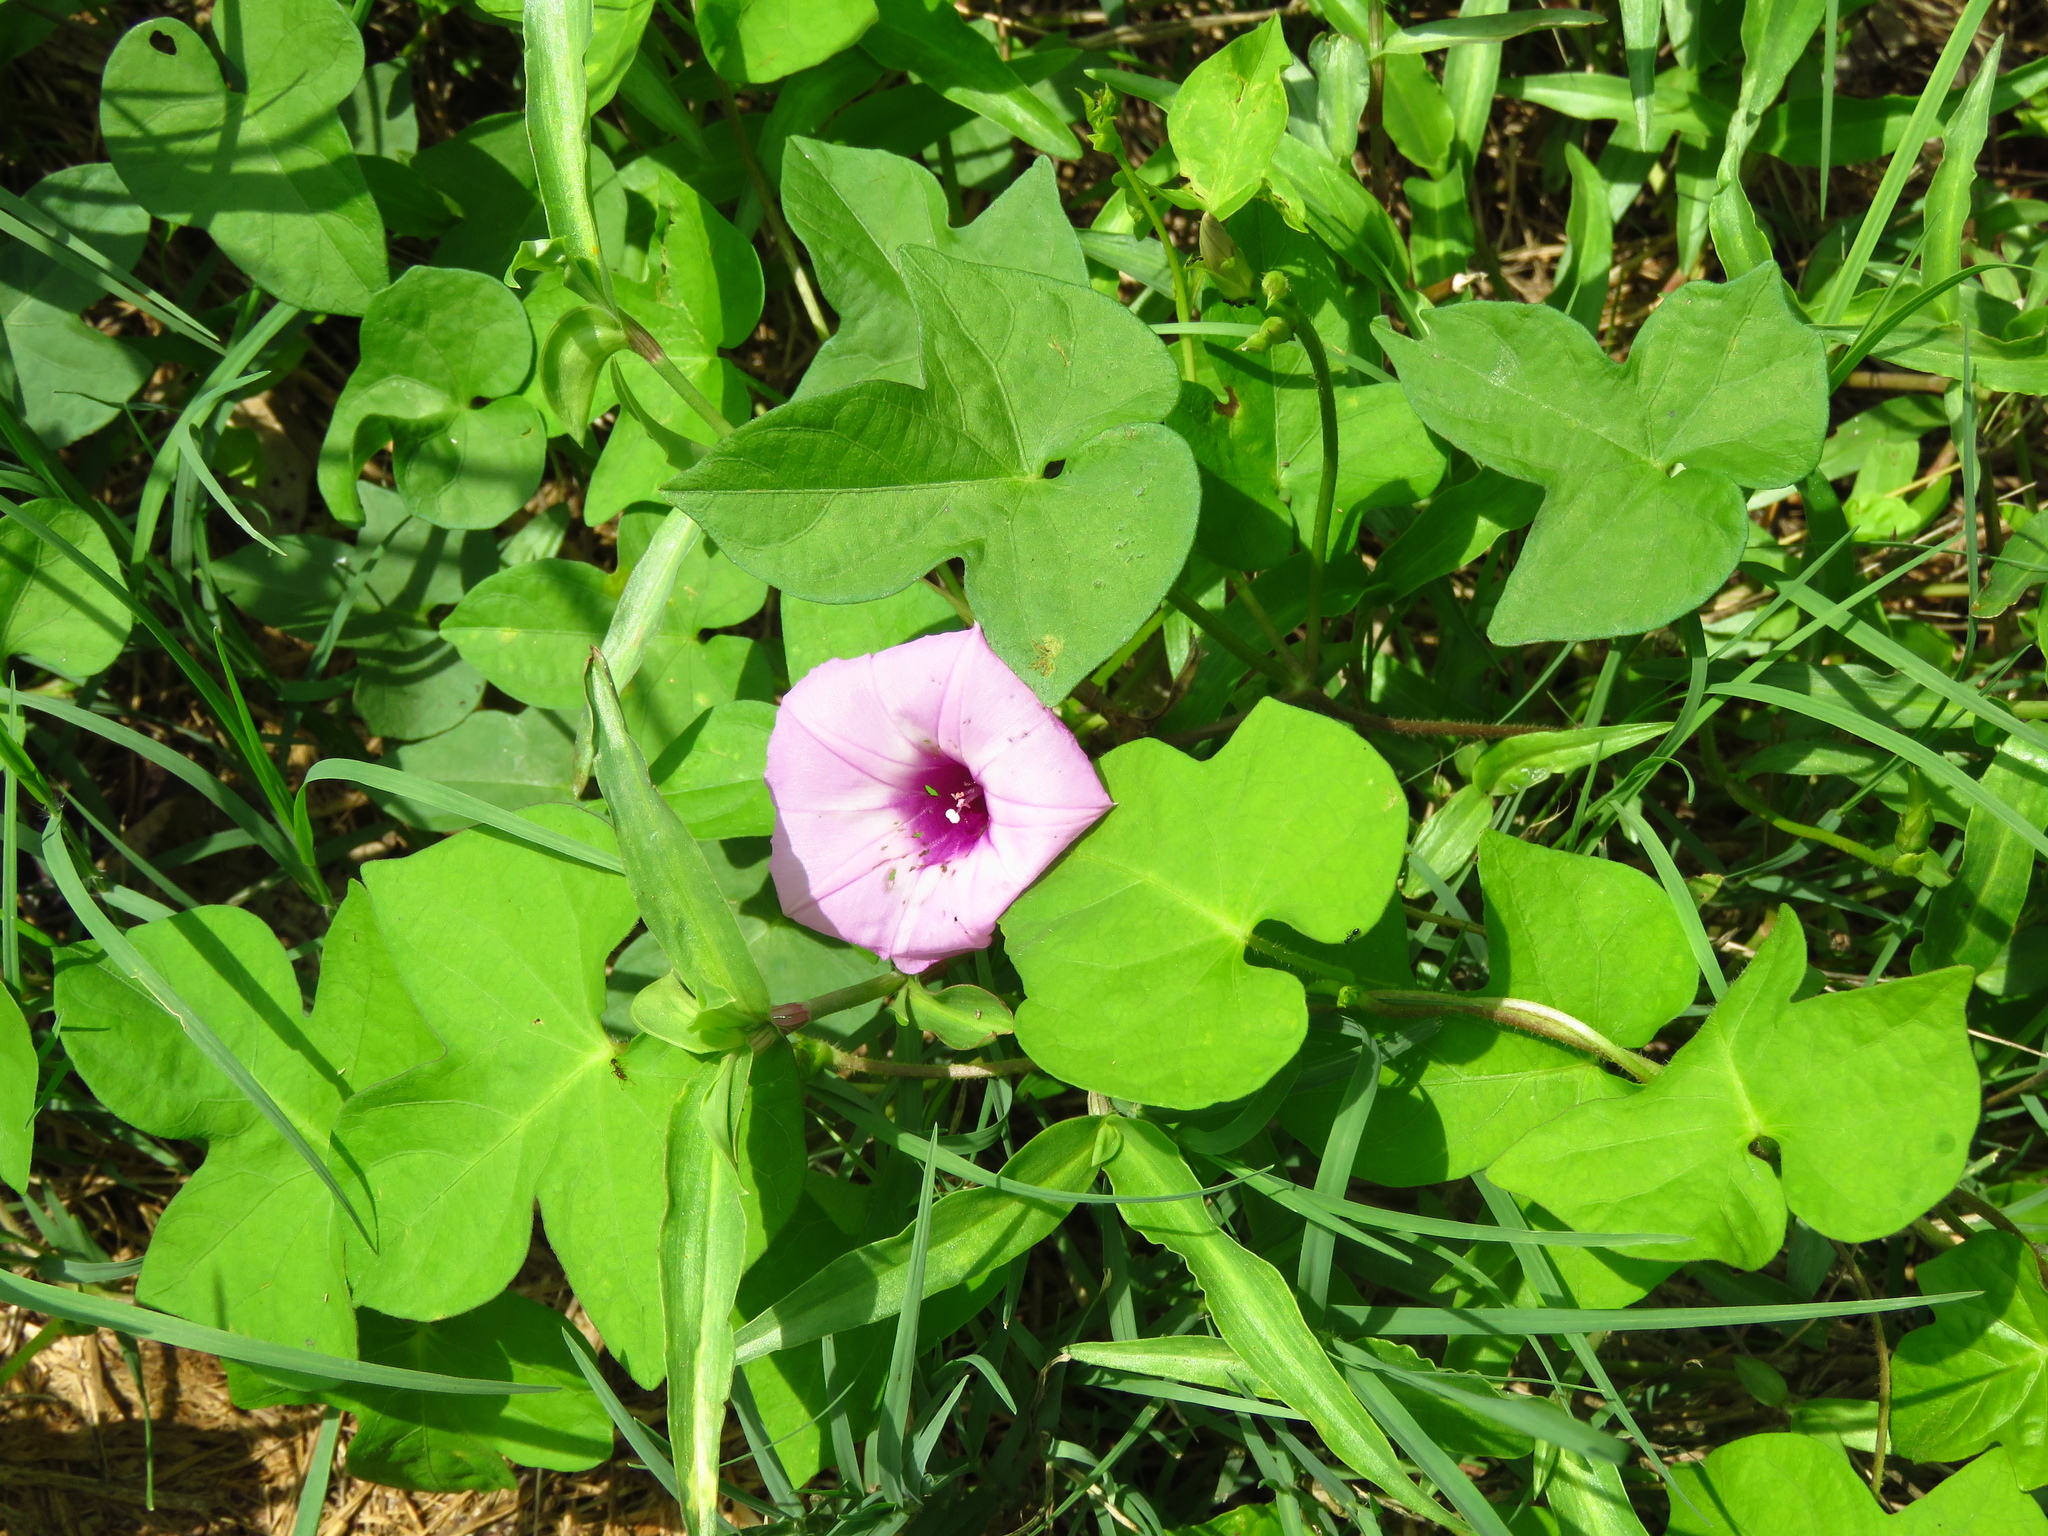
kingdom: Plantae
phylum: Tracheophyta
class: Magnoliopsida
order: Solanales
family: Convolvulaceae
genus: Ipomoea
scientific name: Ipomoea cordatotriloba
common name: Cotton morning glory
